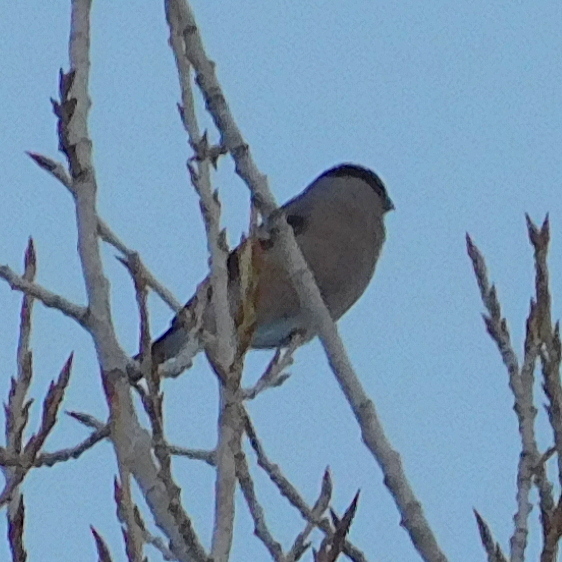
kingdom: Animalia
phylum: Chordata
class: Aves
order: Passeriformes
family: Fringillidae
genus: Pyrrhula
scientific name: Pyrrhula pyrrhula
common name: Eurasian bullfinch
